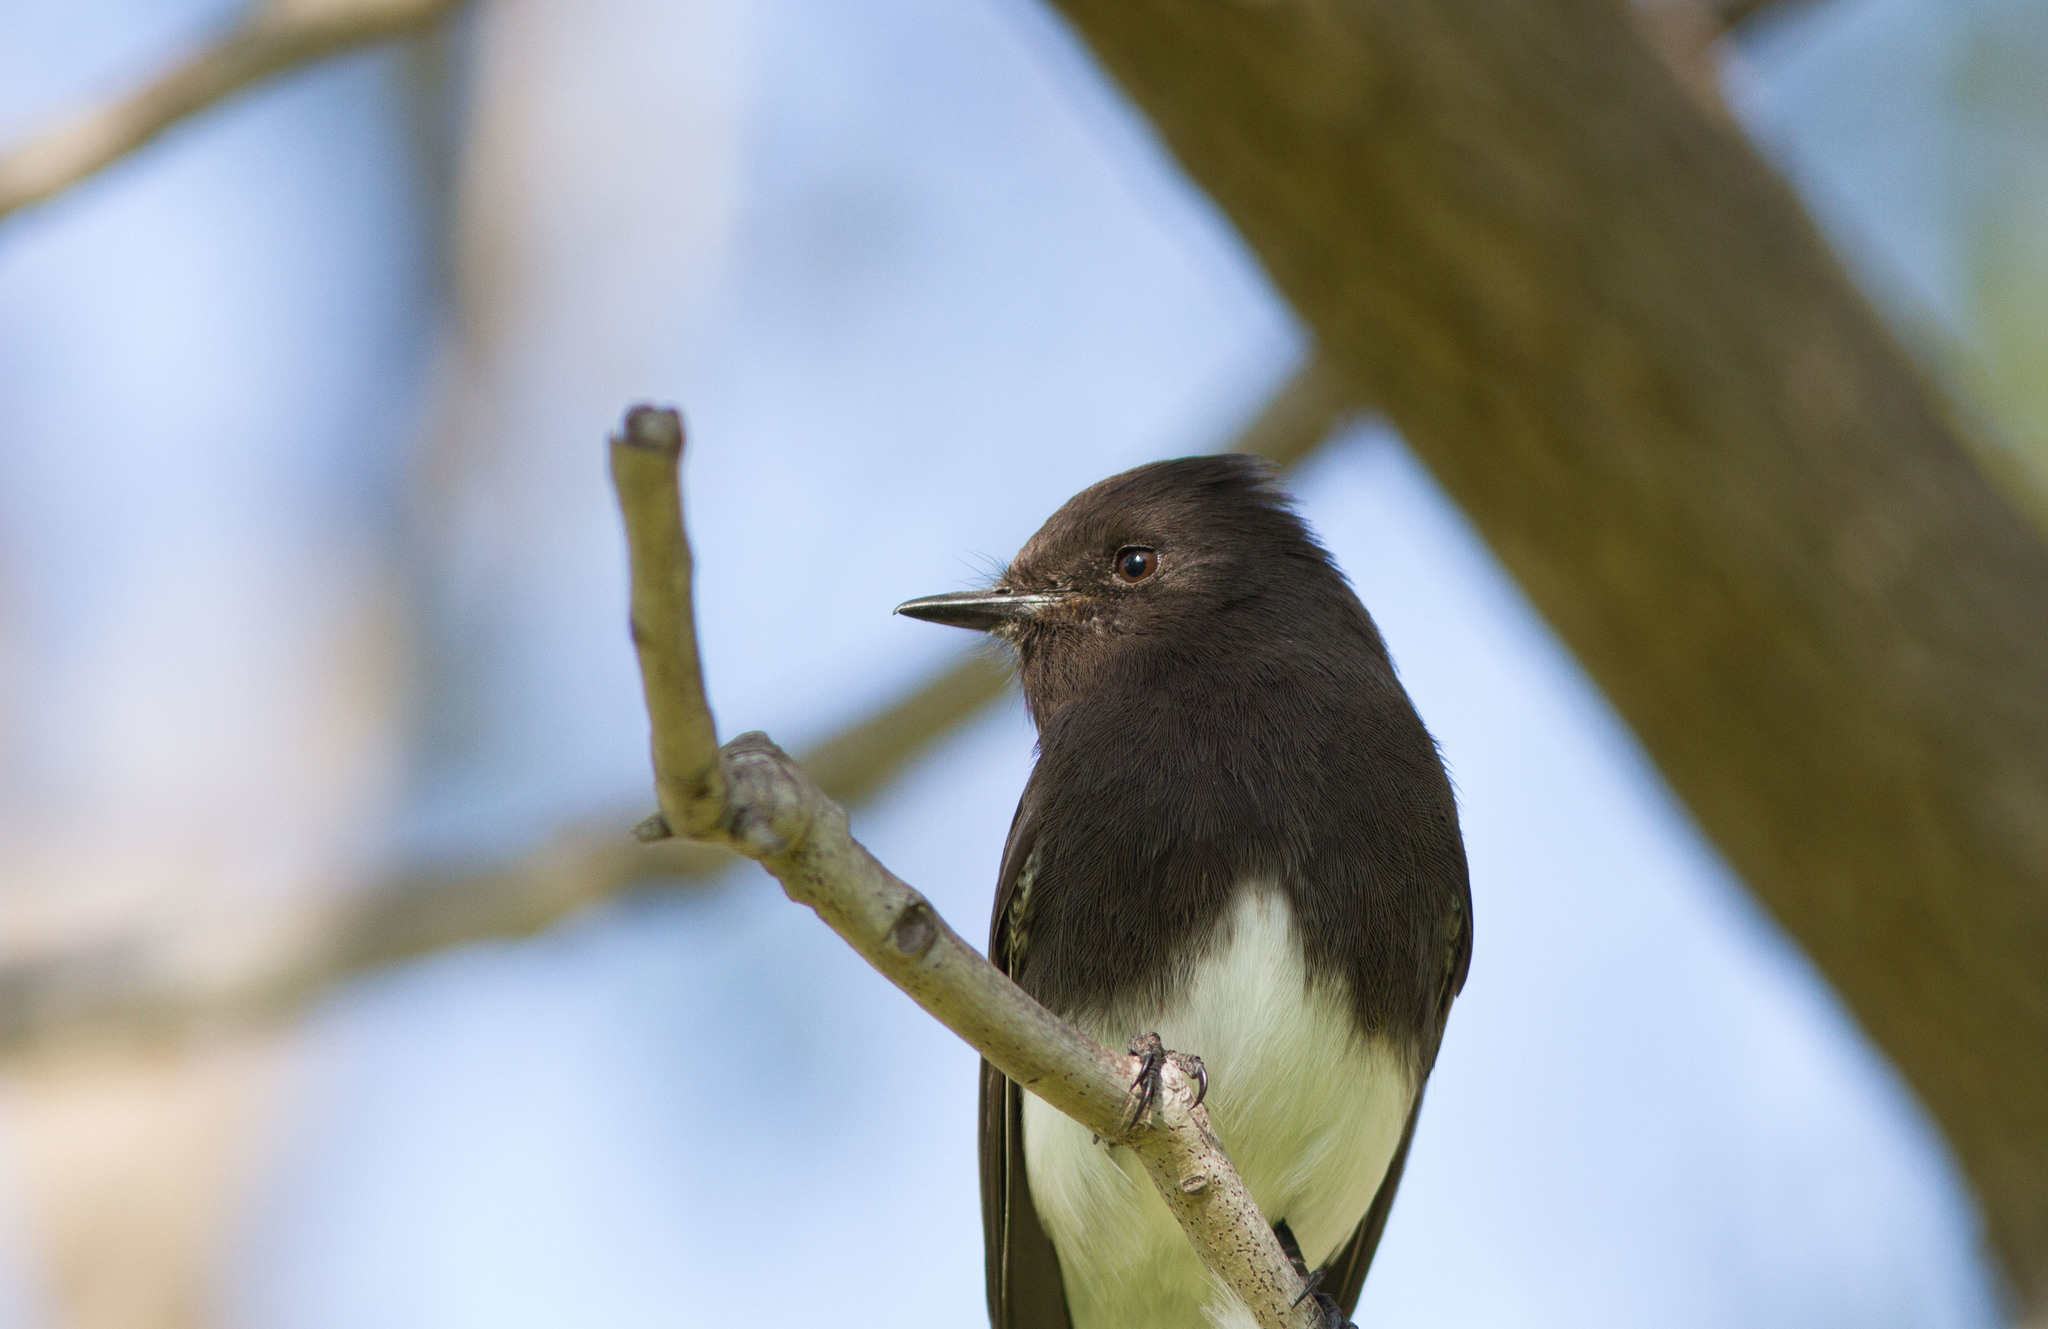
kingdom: Animalia
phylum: Chordata
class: Aves
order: Passeriformes
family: Tyrannidae
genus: Sayornis
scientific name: Sayornis nigricans
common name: Black phoebe
